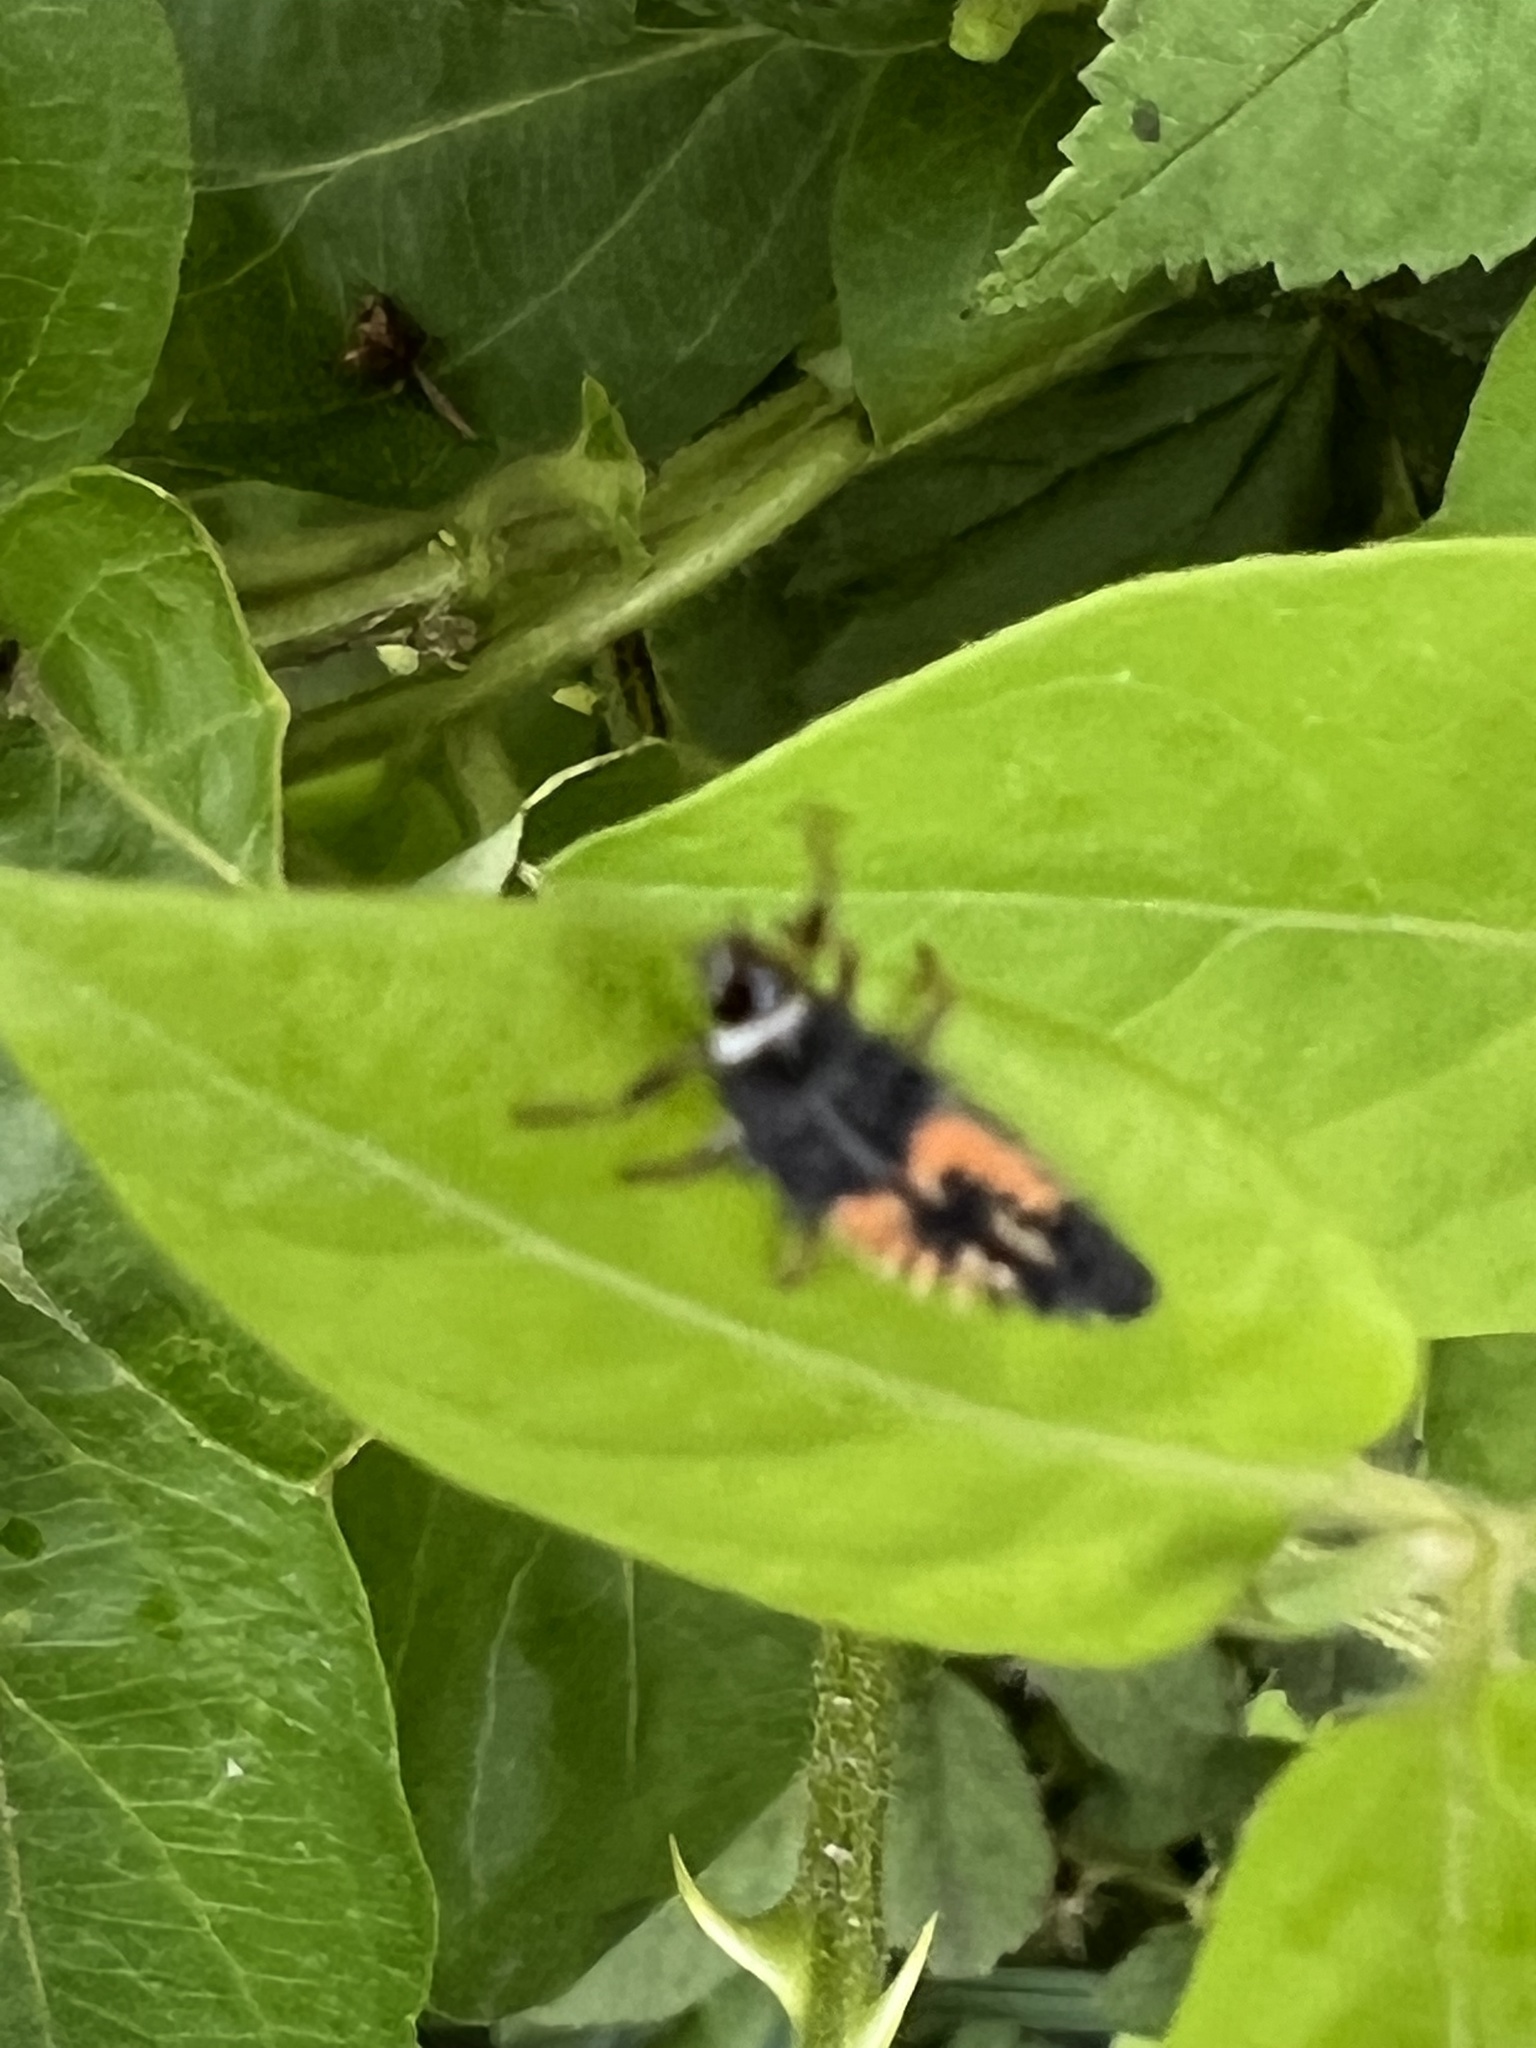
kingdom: Animalia
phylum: Arthropoda
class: Insecta
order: Coleoptera
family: Coccinellidae
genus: Harmonia
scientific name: Harmonia axyridis
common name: Harlequin ladybird
